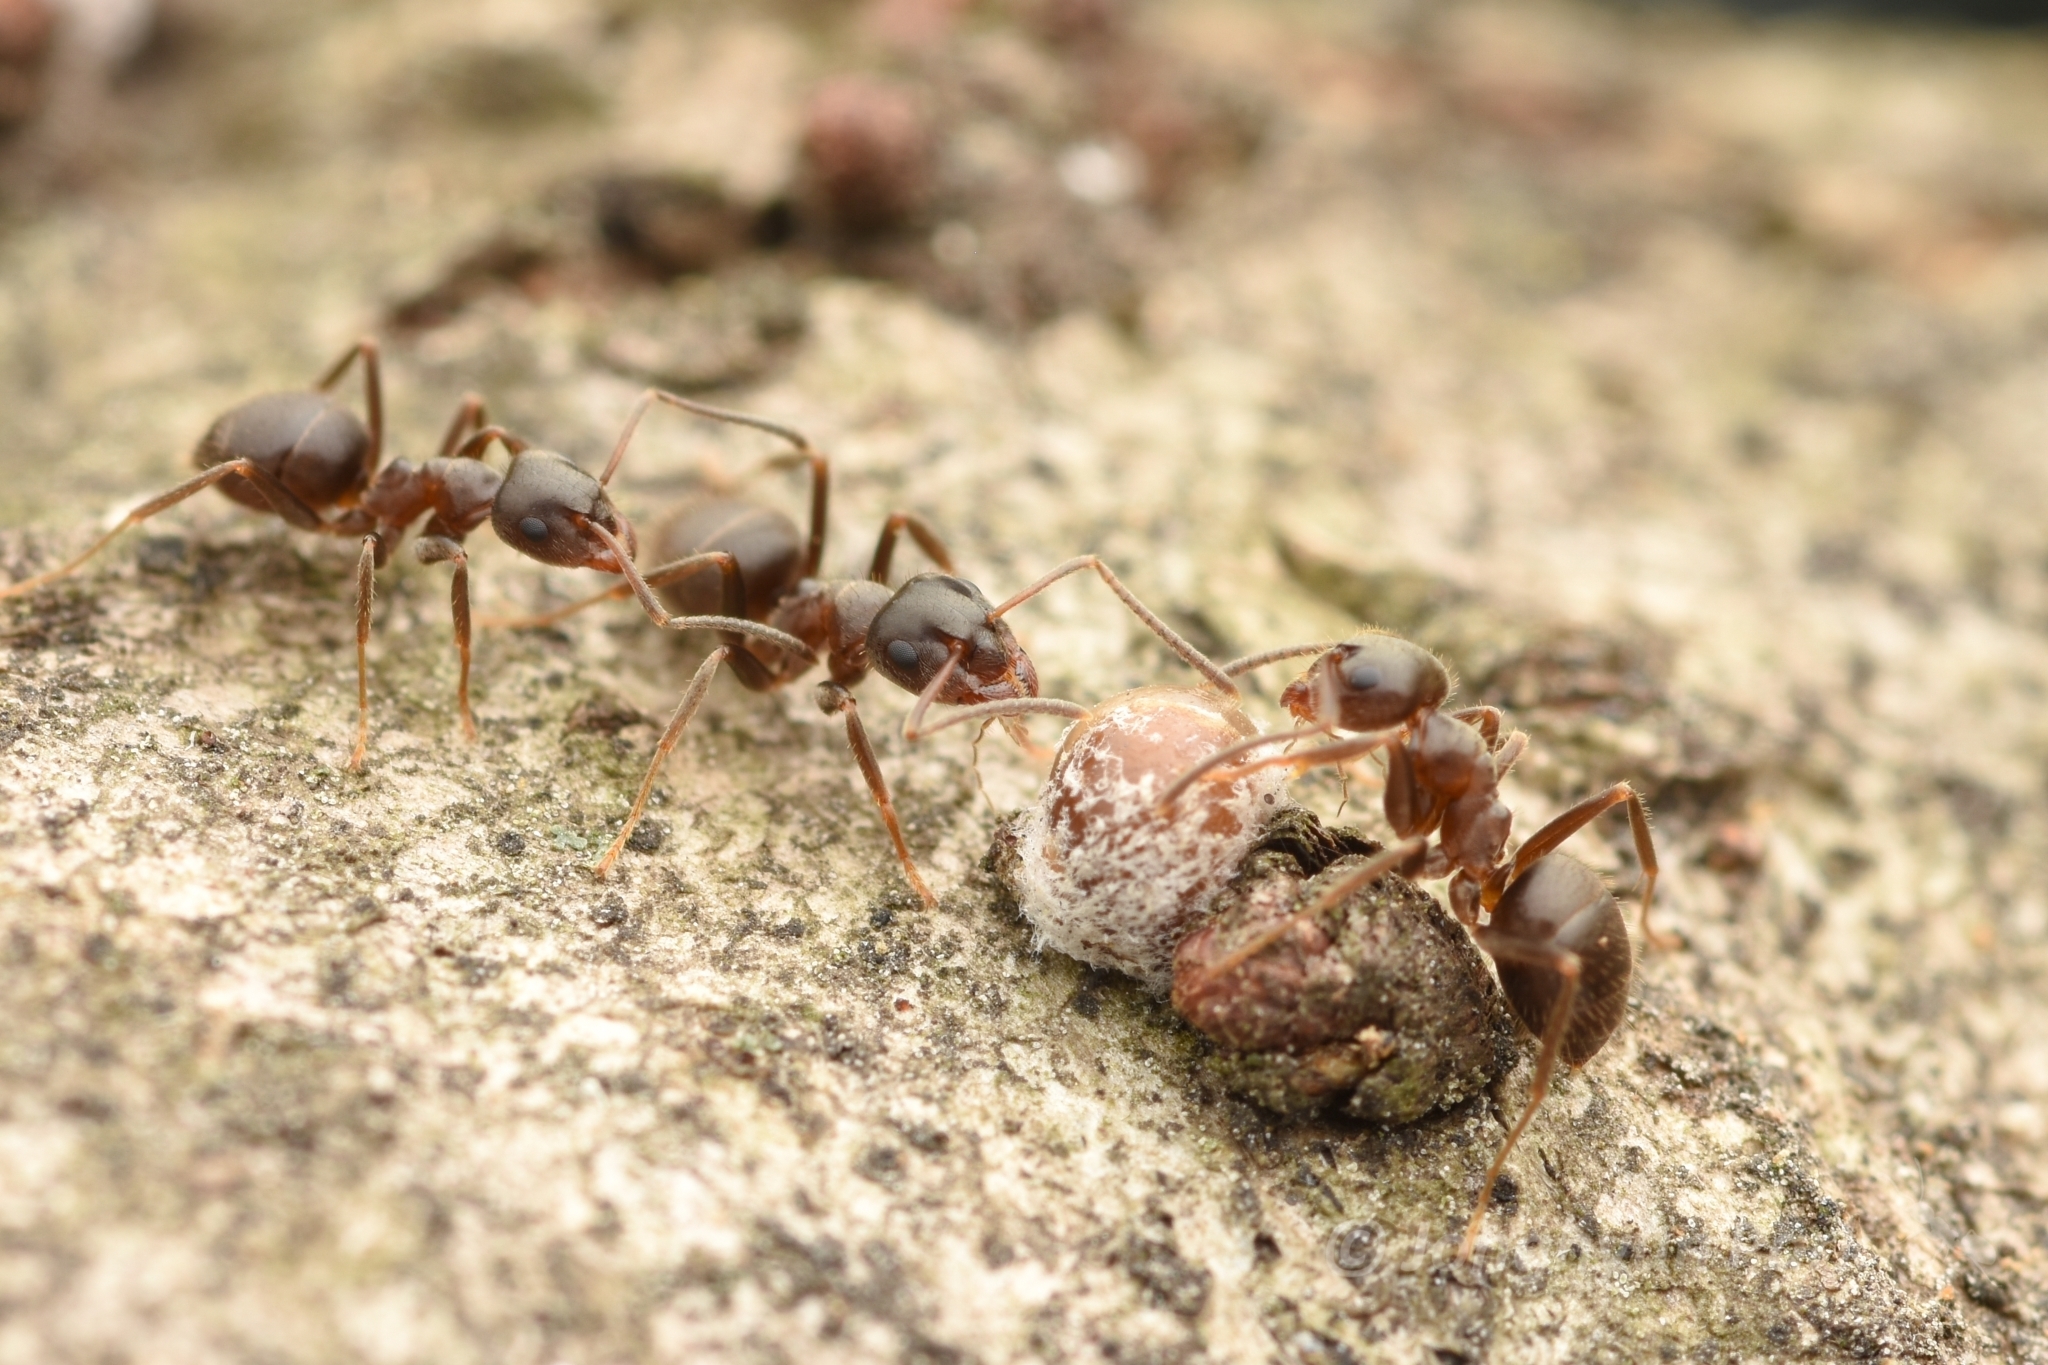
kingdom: Animalia
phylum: Arthropoda
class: Insecta
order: Hymenoptera
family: Formicidae
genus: Lasius
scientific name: Lasius japonicus
